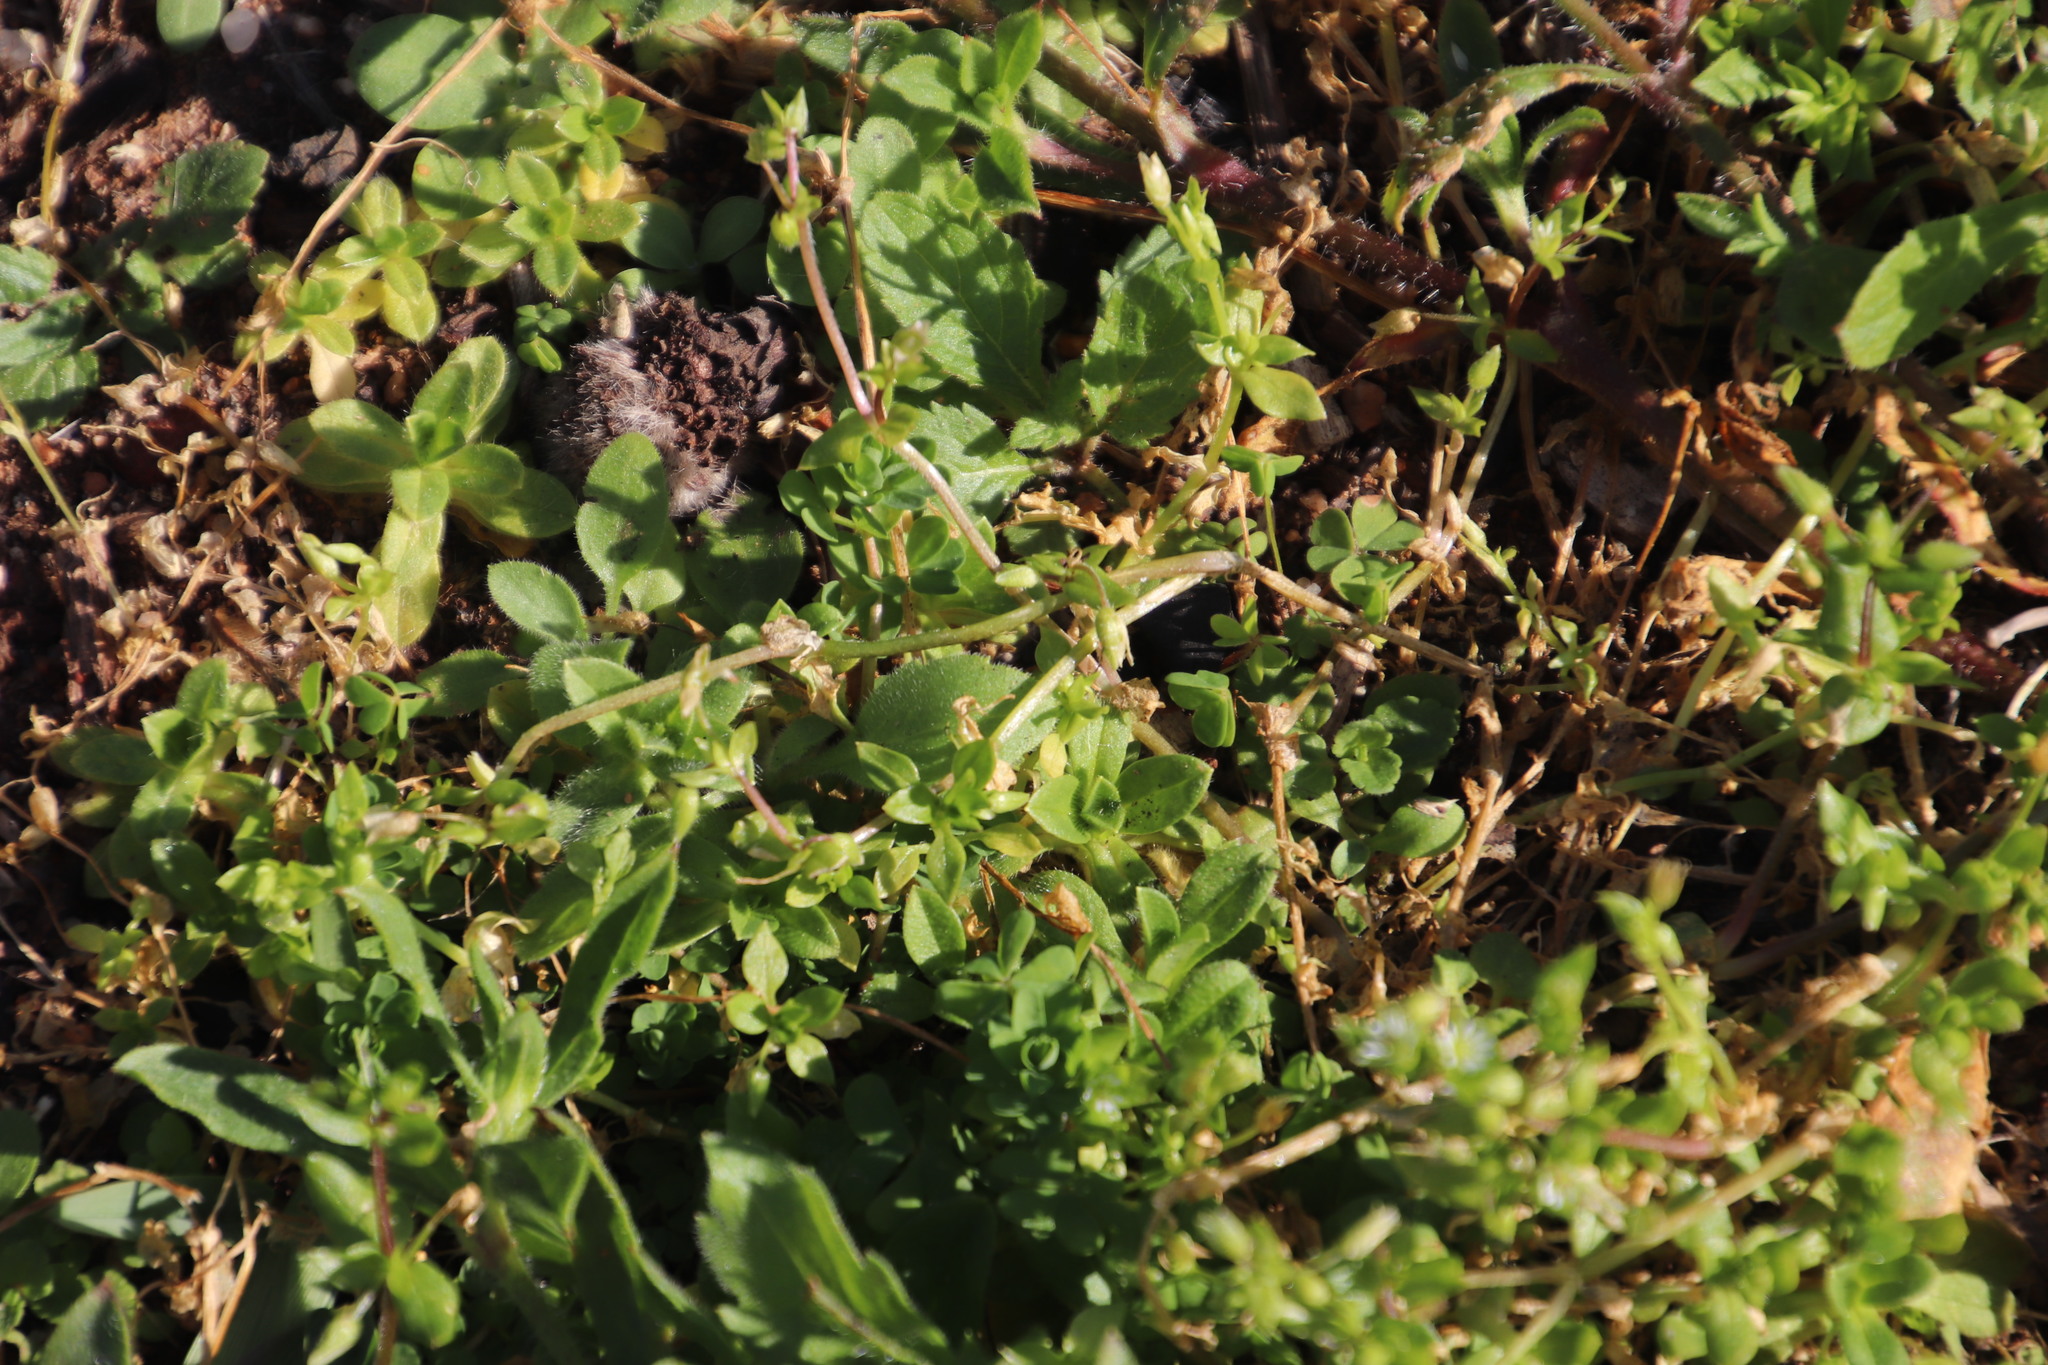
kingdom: Plantae
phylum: Tracheophyta
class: Magnoliopsida
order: Caryophyllales
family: Caryophyllaceae
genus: Stellaria
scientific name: Stellaria media
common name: Common chickweed
